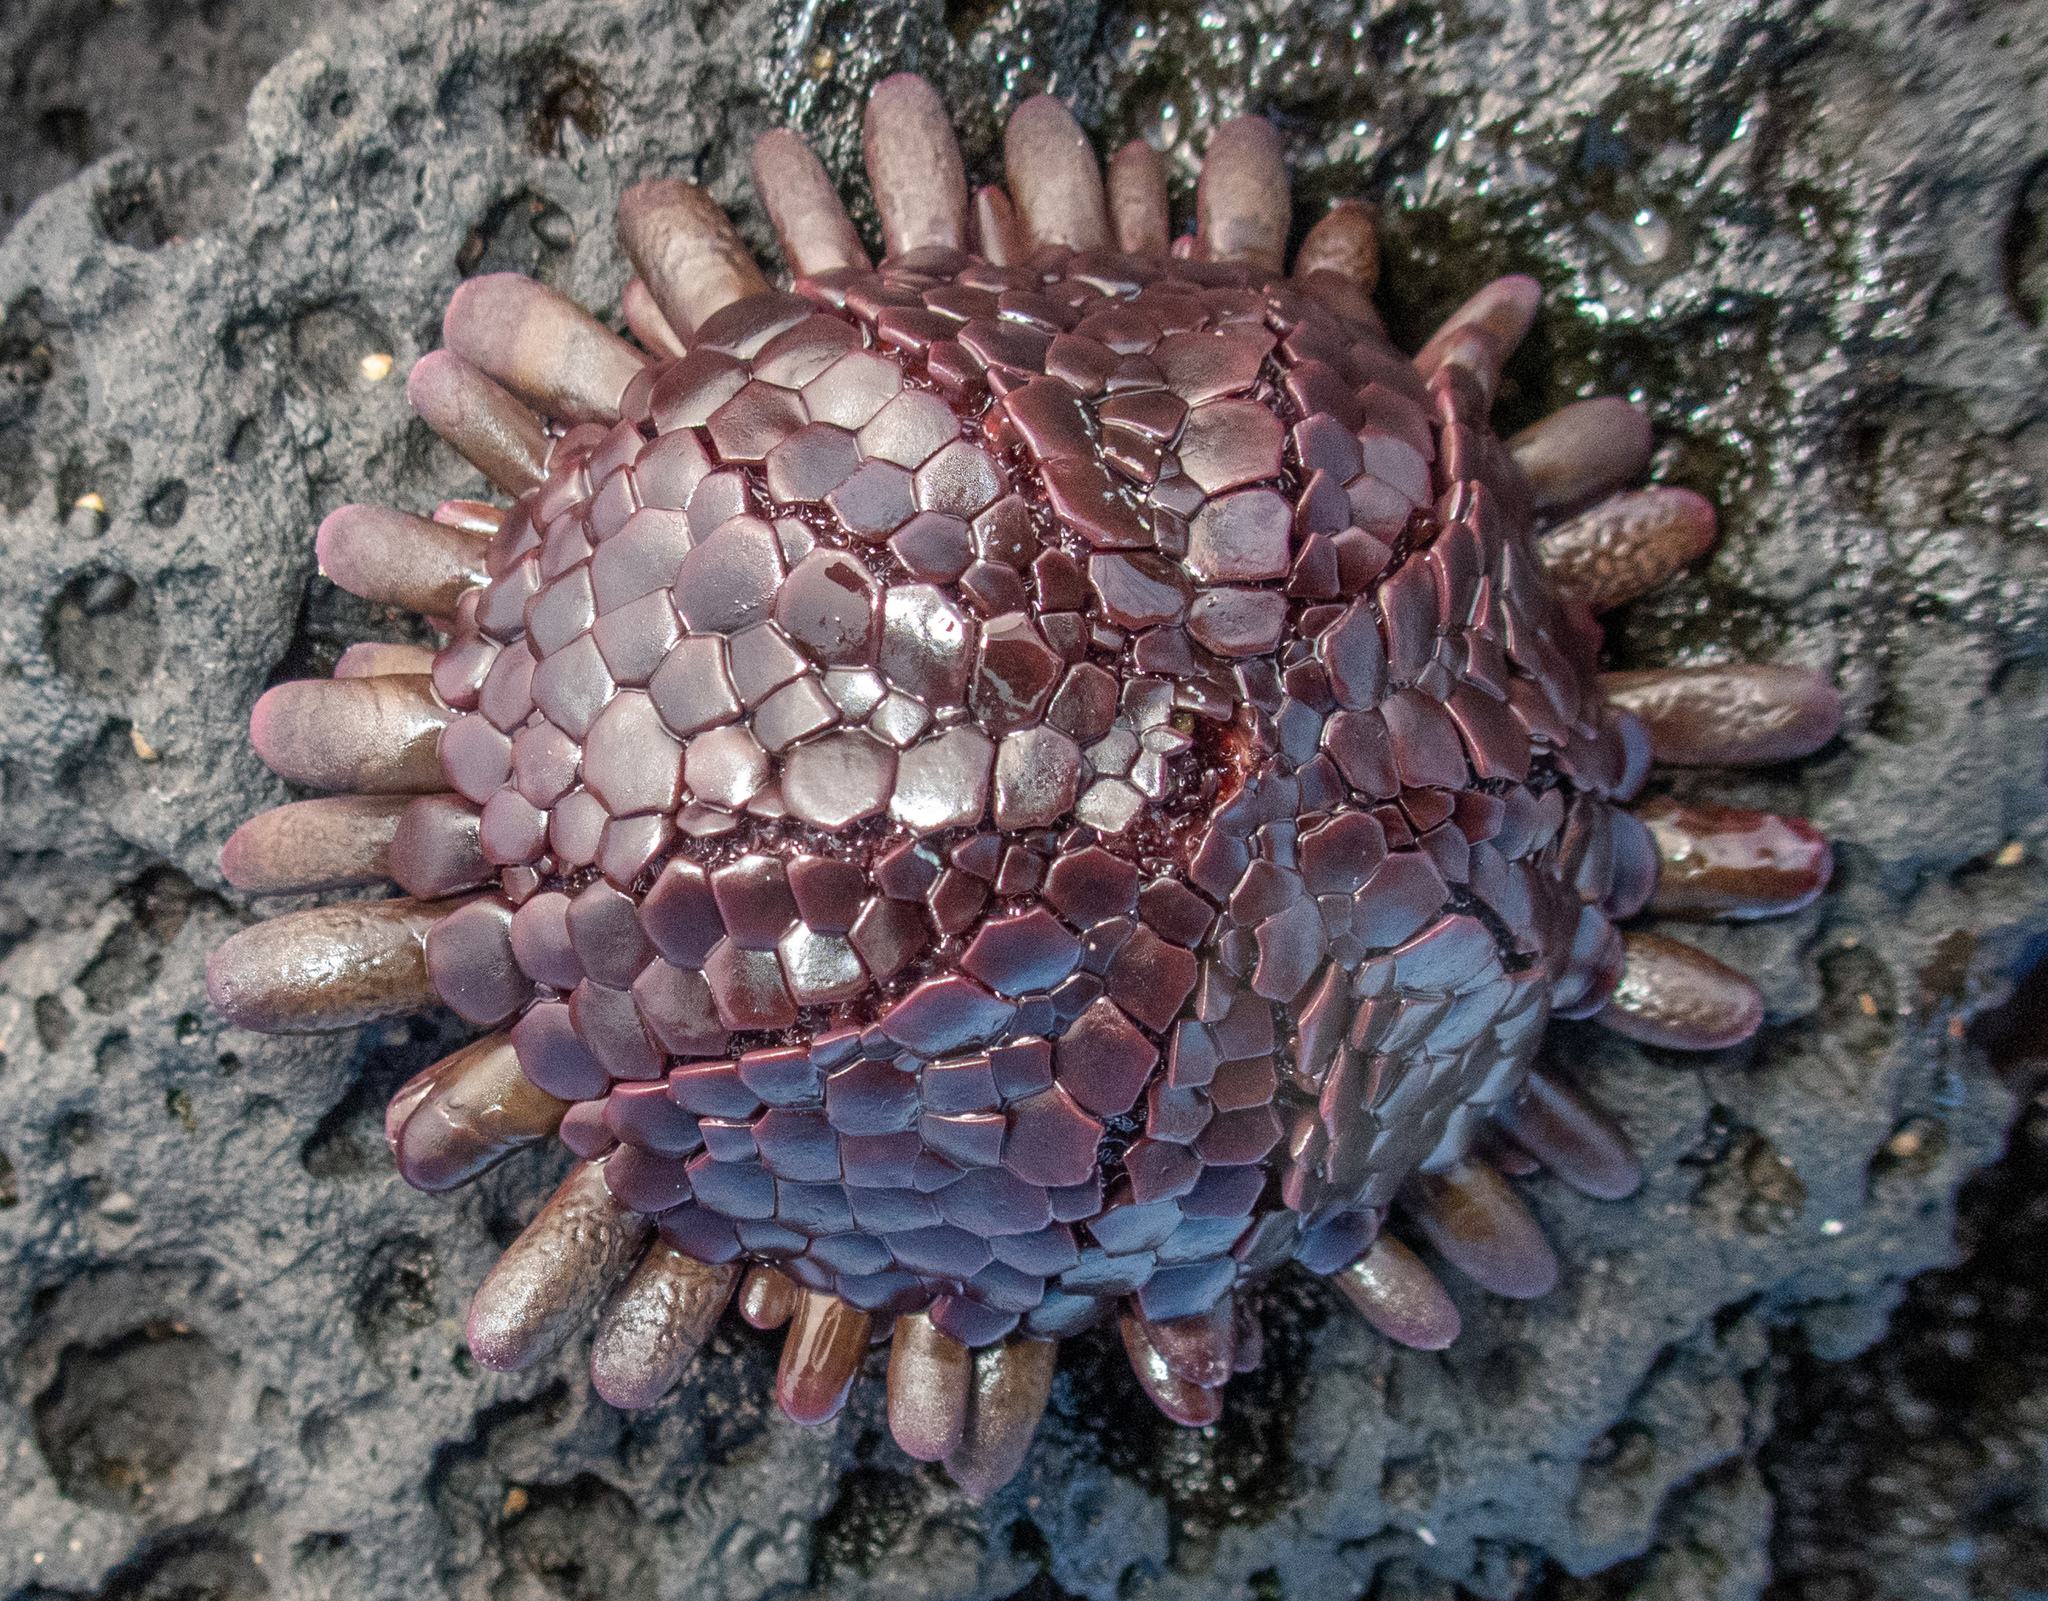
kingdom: Animalia
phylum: Echinodermata
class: Echinoidea
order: Camarodonta
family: Echinometridae
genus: Colobocentrotus
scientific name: Colobocentrotus atratus
